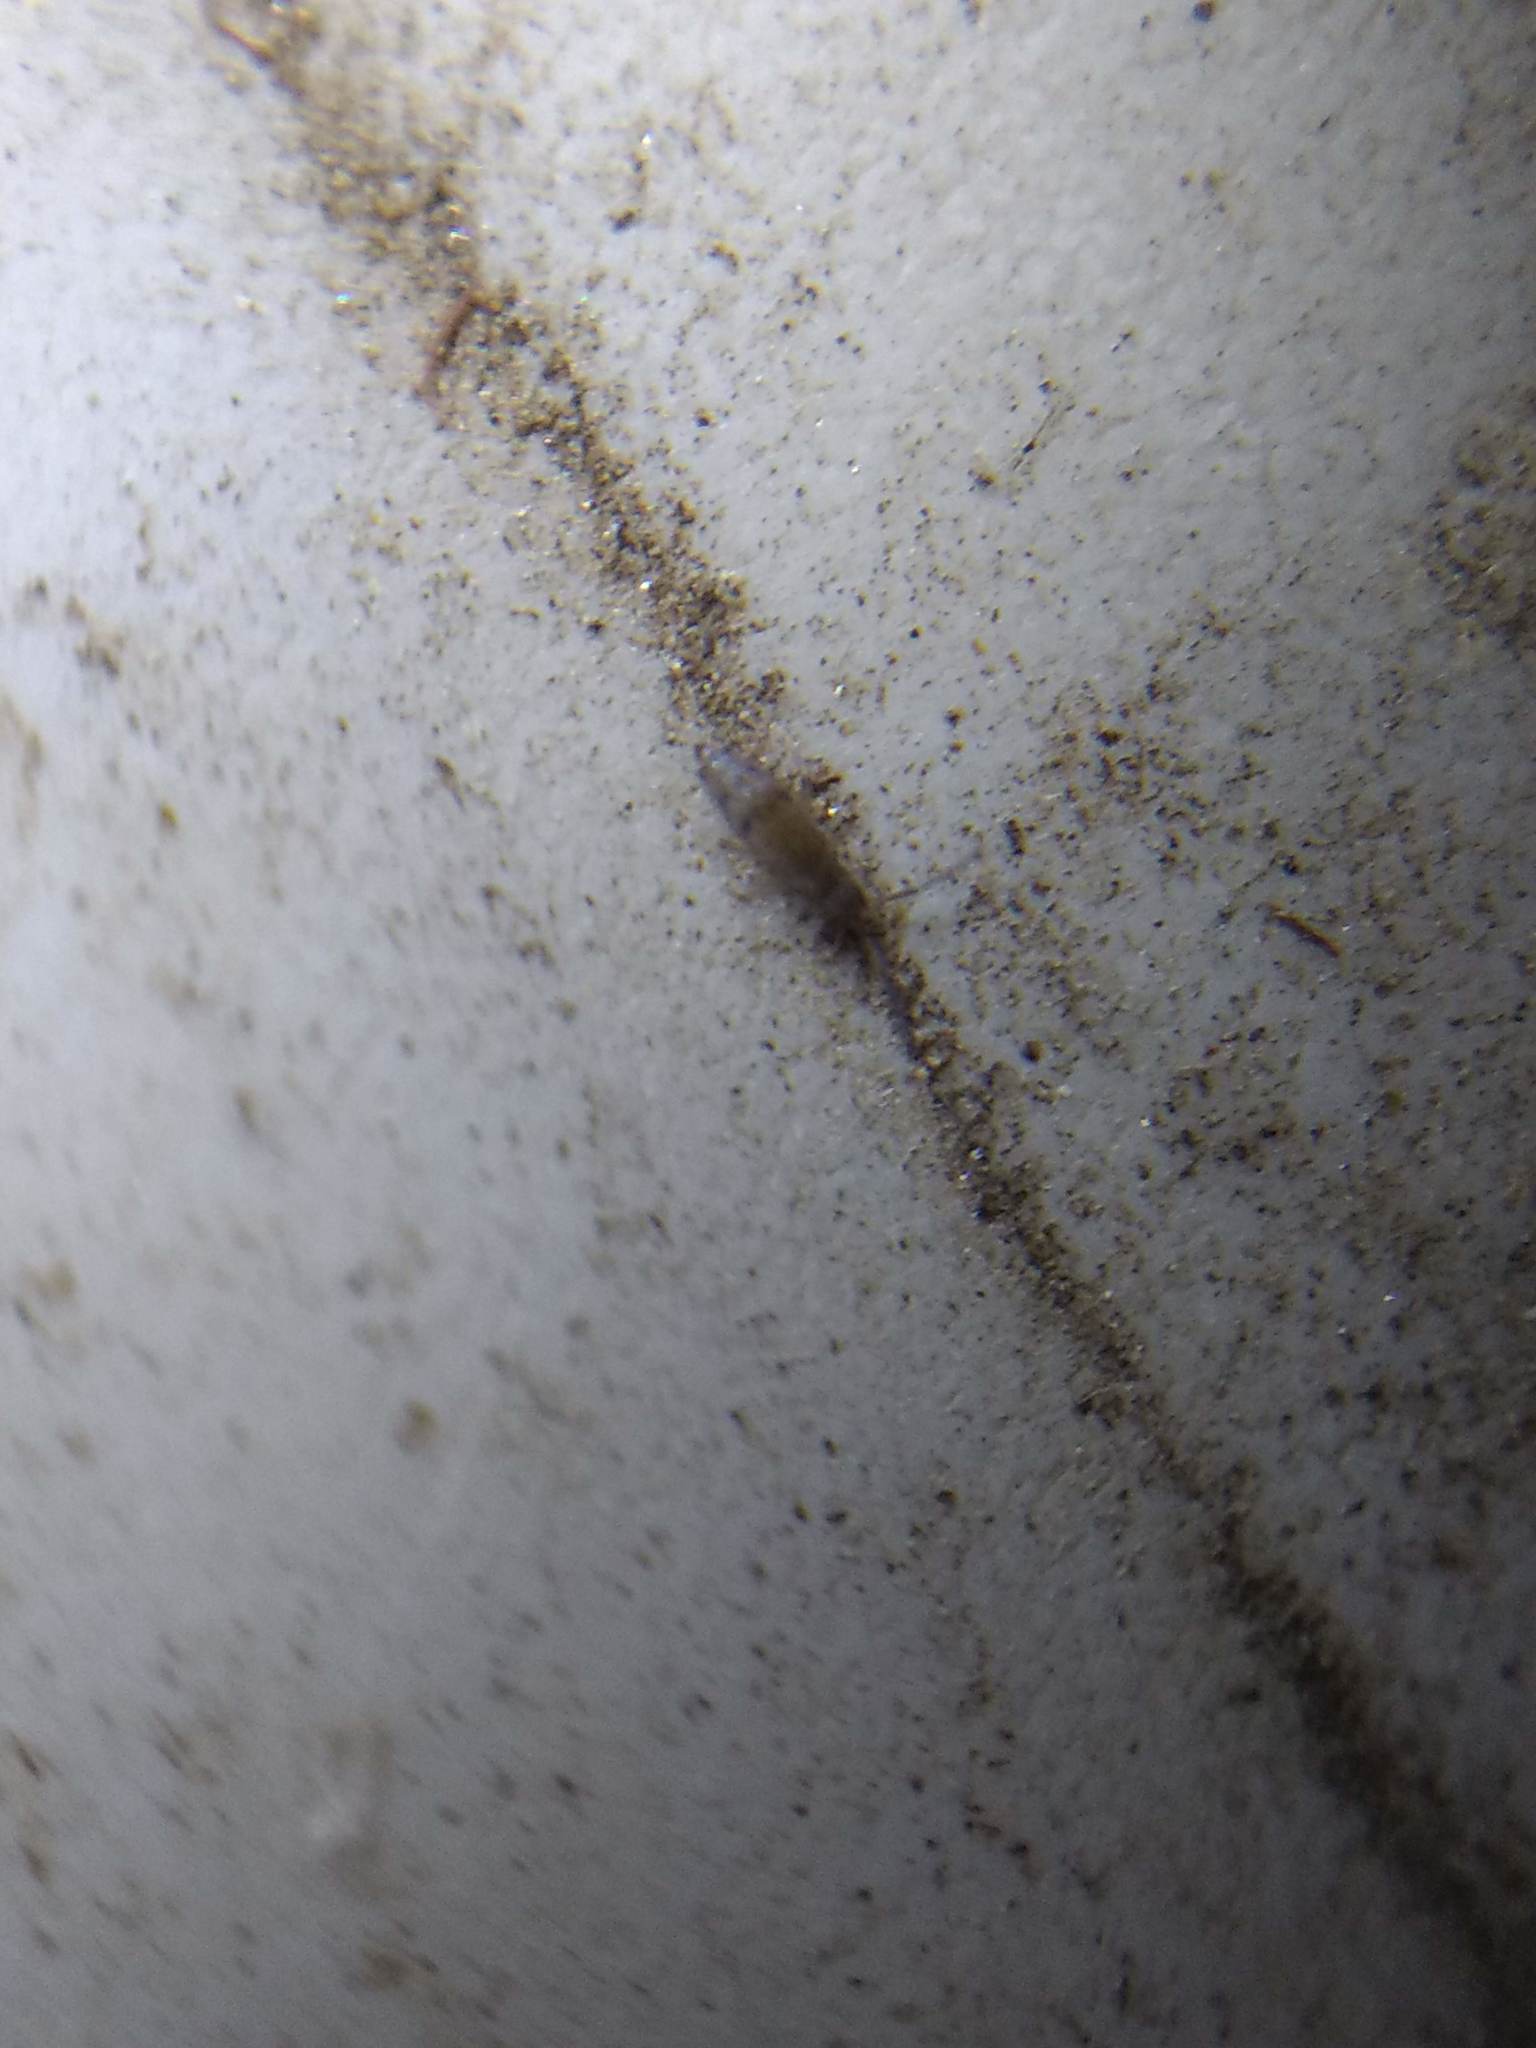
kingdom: Animalia
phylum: Arthropoda
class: Collembola
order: Entomobryomorpha
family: Entomobryidae
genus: Willowsia
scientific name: Willowsia nigromaculata
